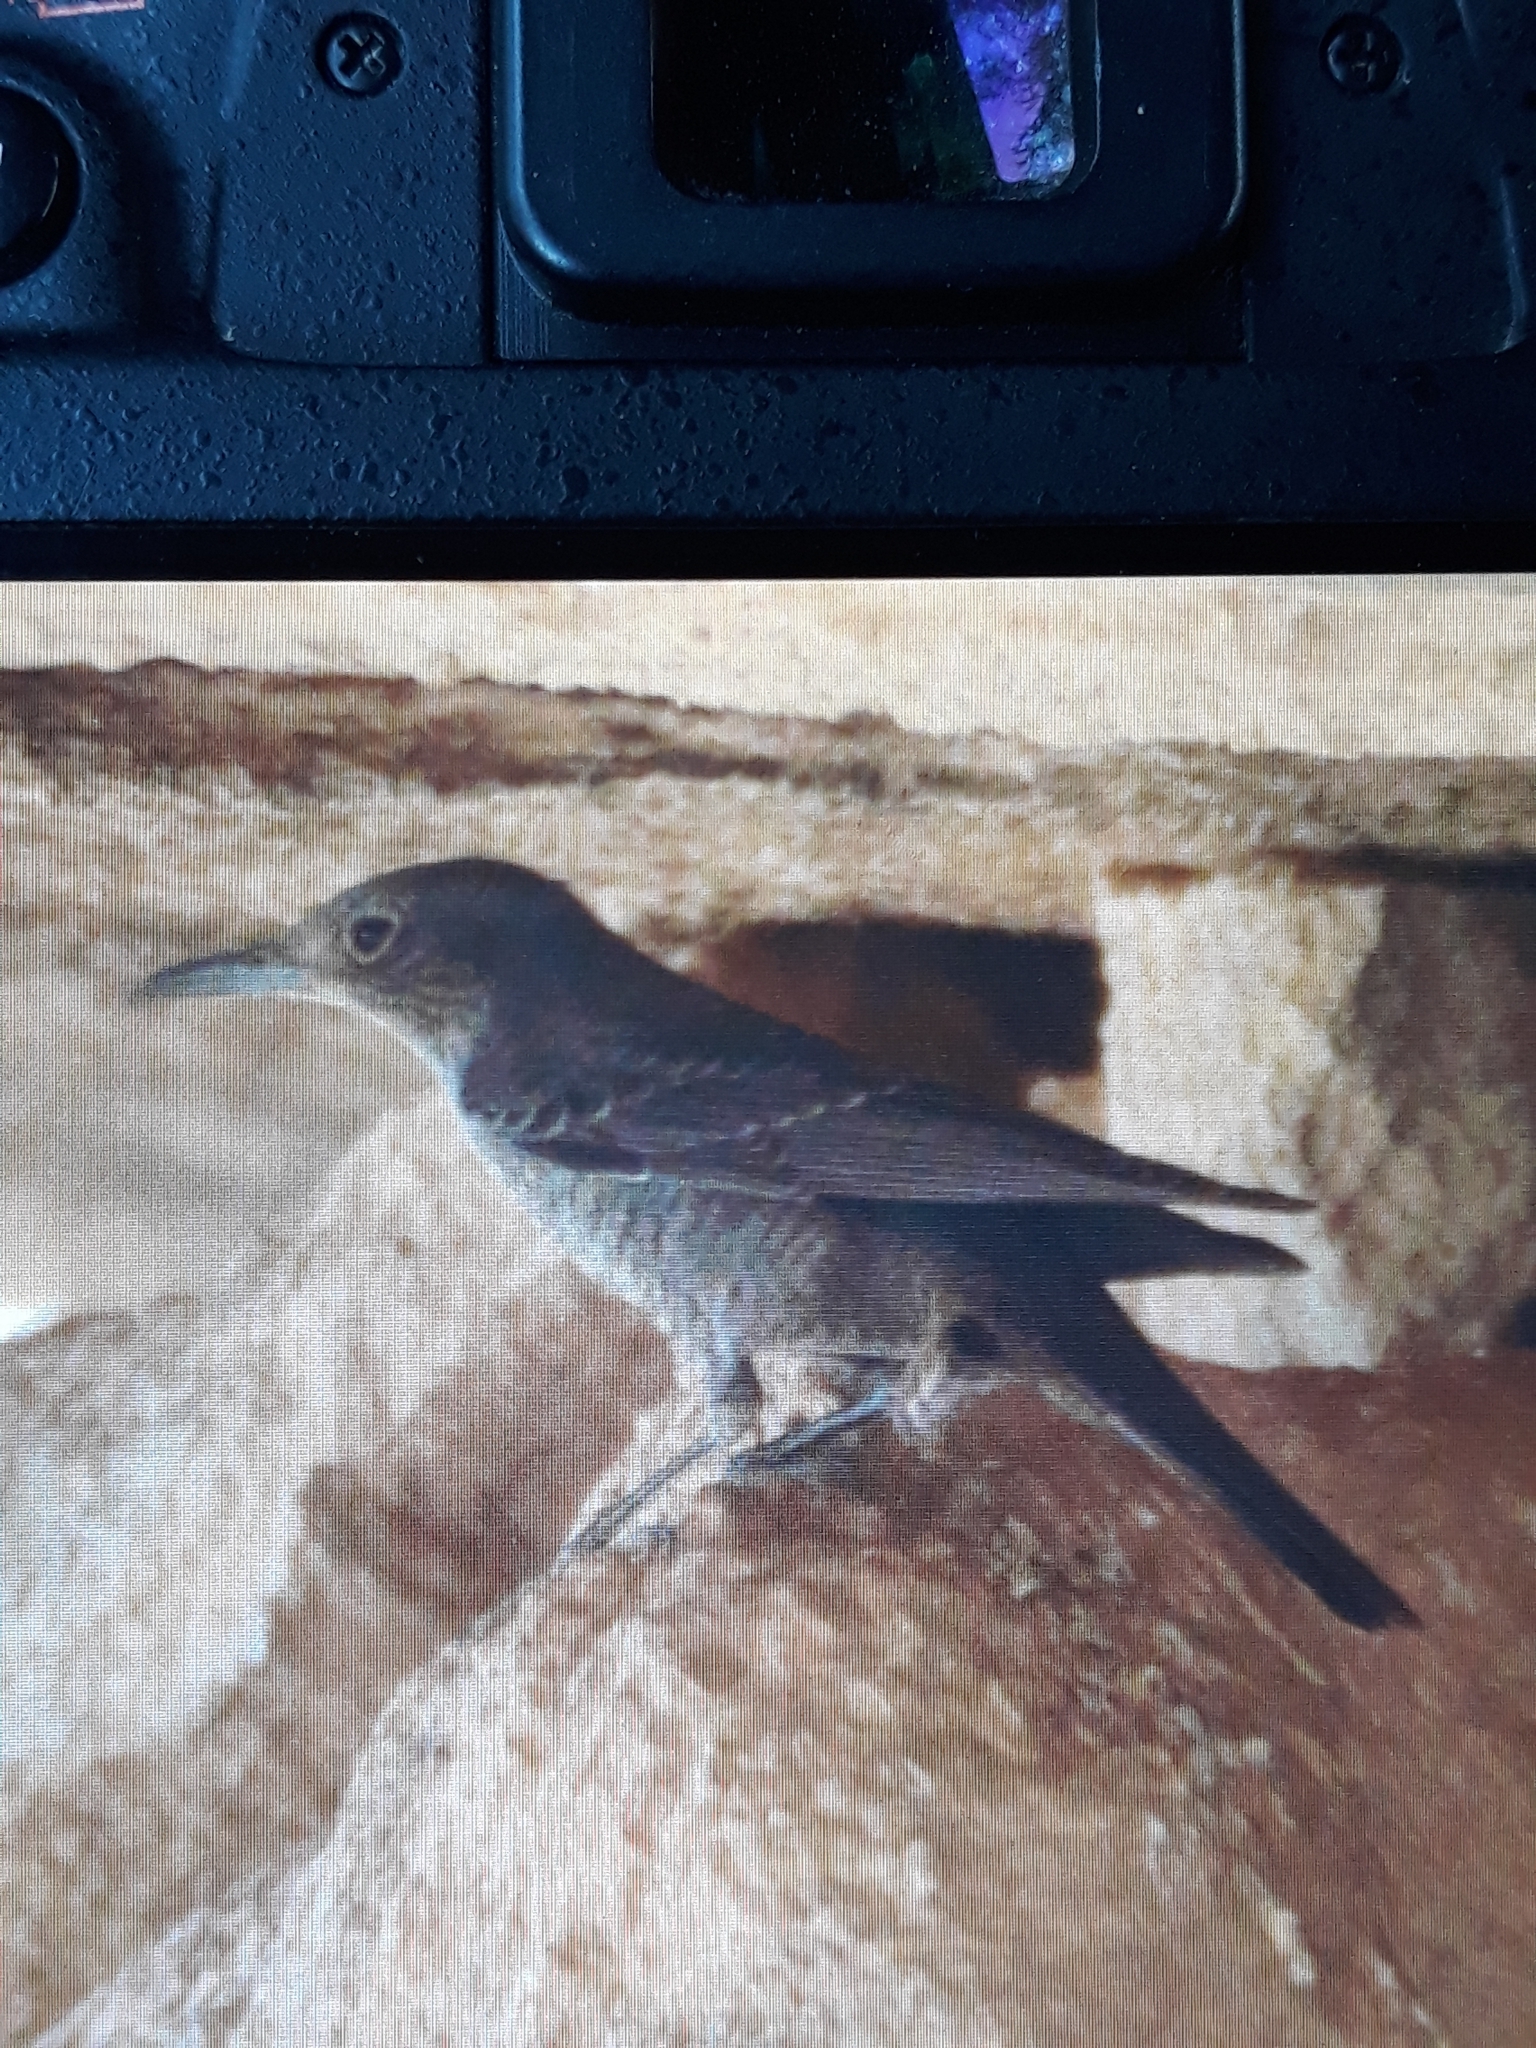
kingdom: Animalia
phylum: Chordata
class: Aves
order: Passeriformes
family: Muscicapidae
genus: Monticola
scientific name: Monticola solitarius
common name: Blue rock thrush
